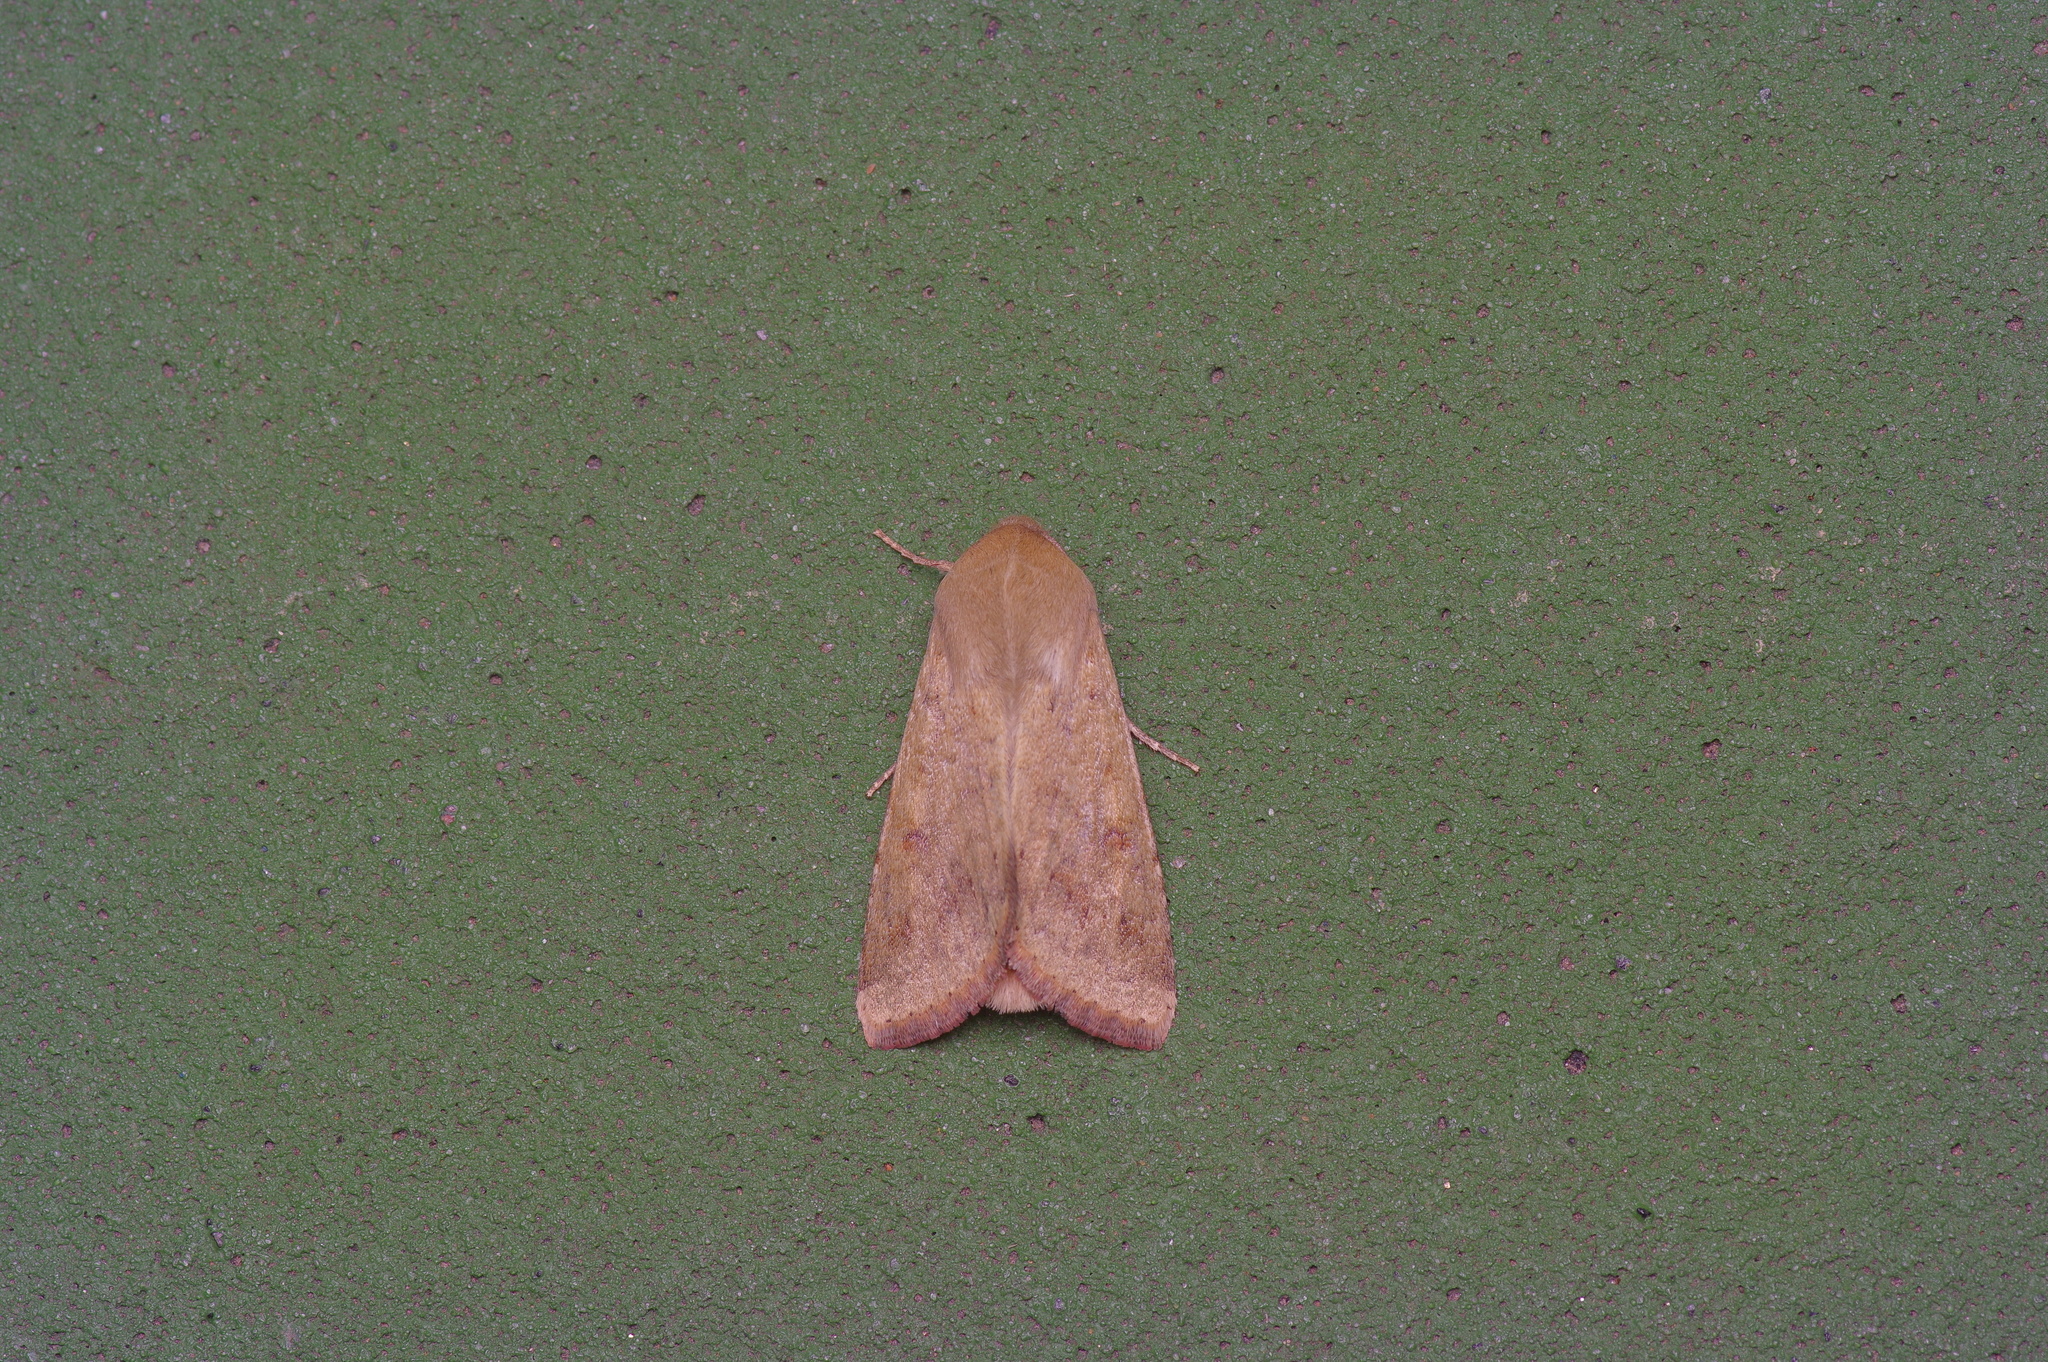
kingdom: Animalia
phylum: Arthropoda
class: Insecta
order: Lepidoptera
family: Noctuidae
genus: Helicoverpa
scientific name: Helicoverpa zea
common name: Bollworm
